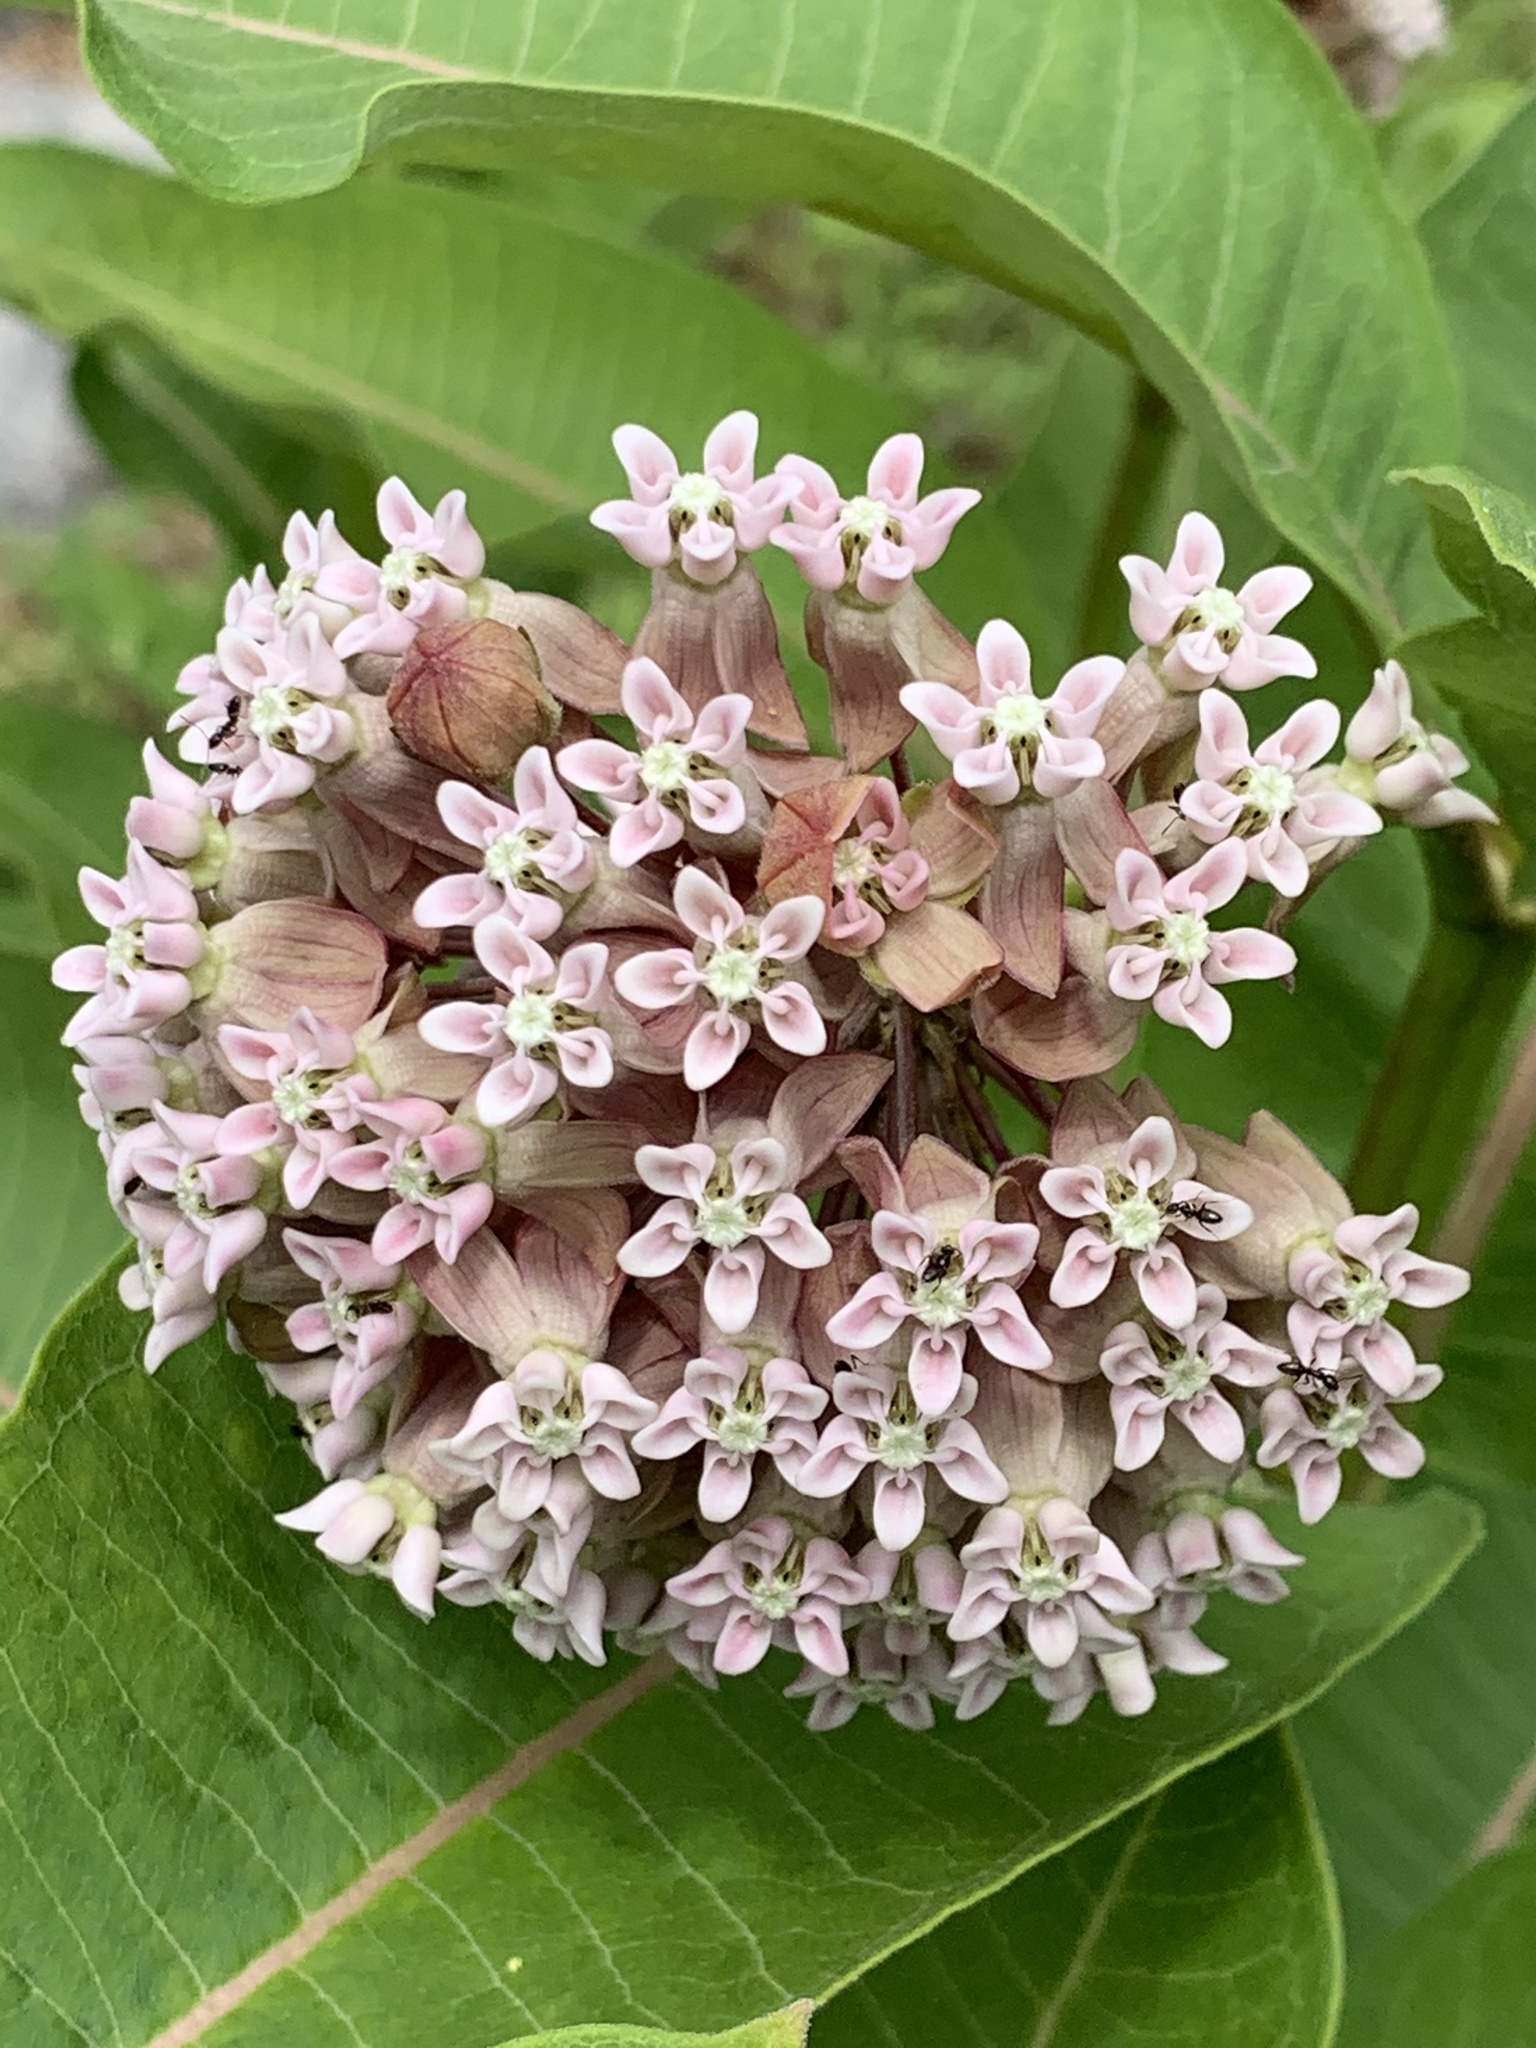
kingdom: Plantae
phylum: Tracheophyta
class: Magnoliopsida
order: Gentianales
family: Apocynaceae
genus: Asclepias
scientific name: Asclepias syriaca
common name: Common milkweed
